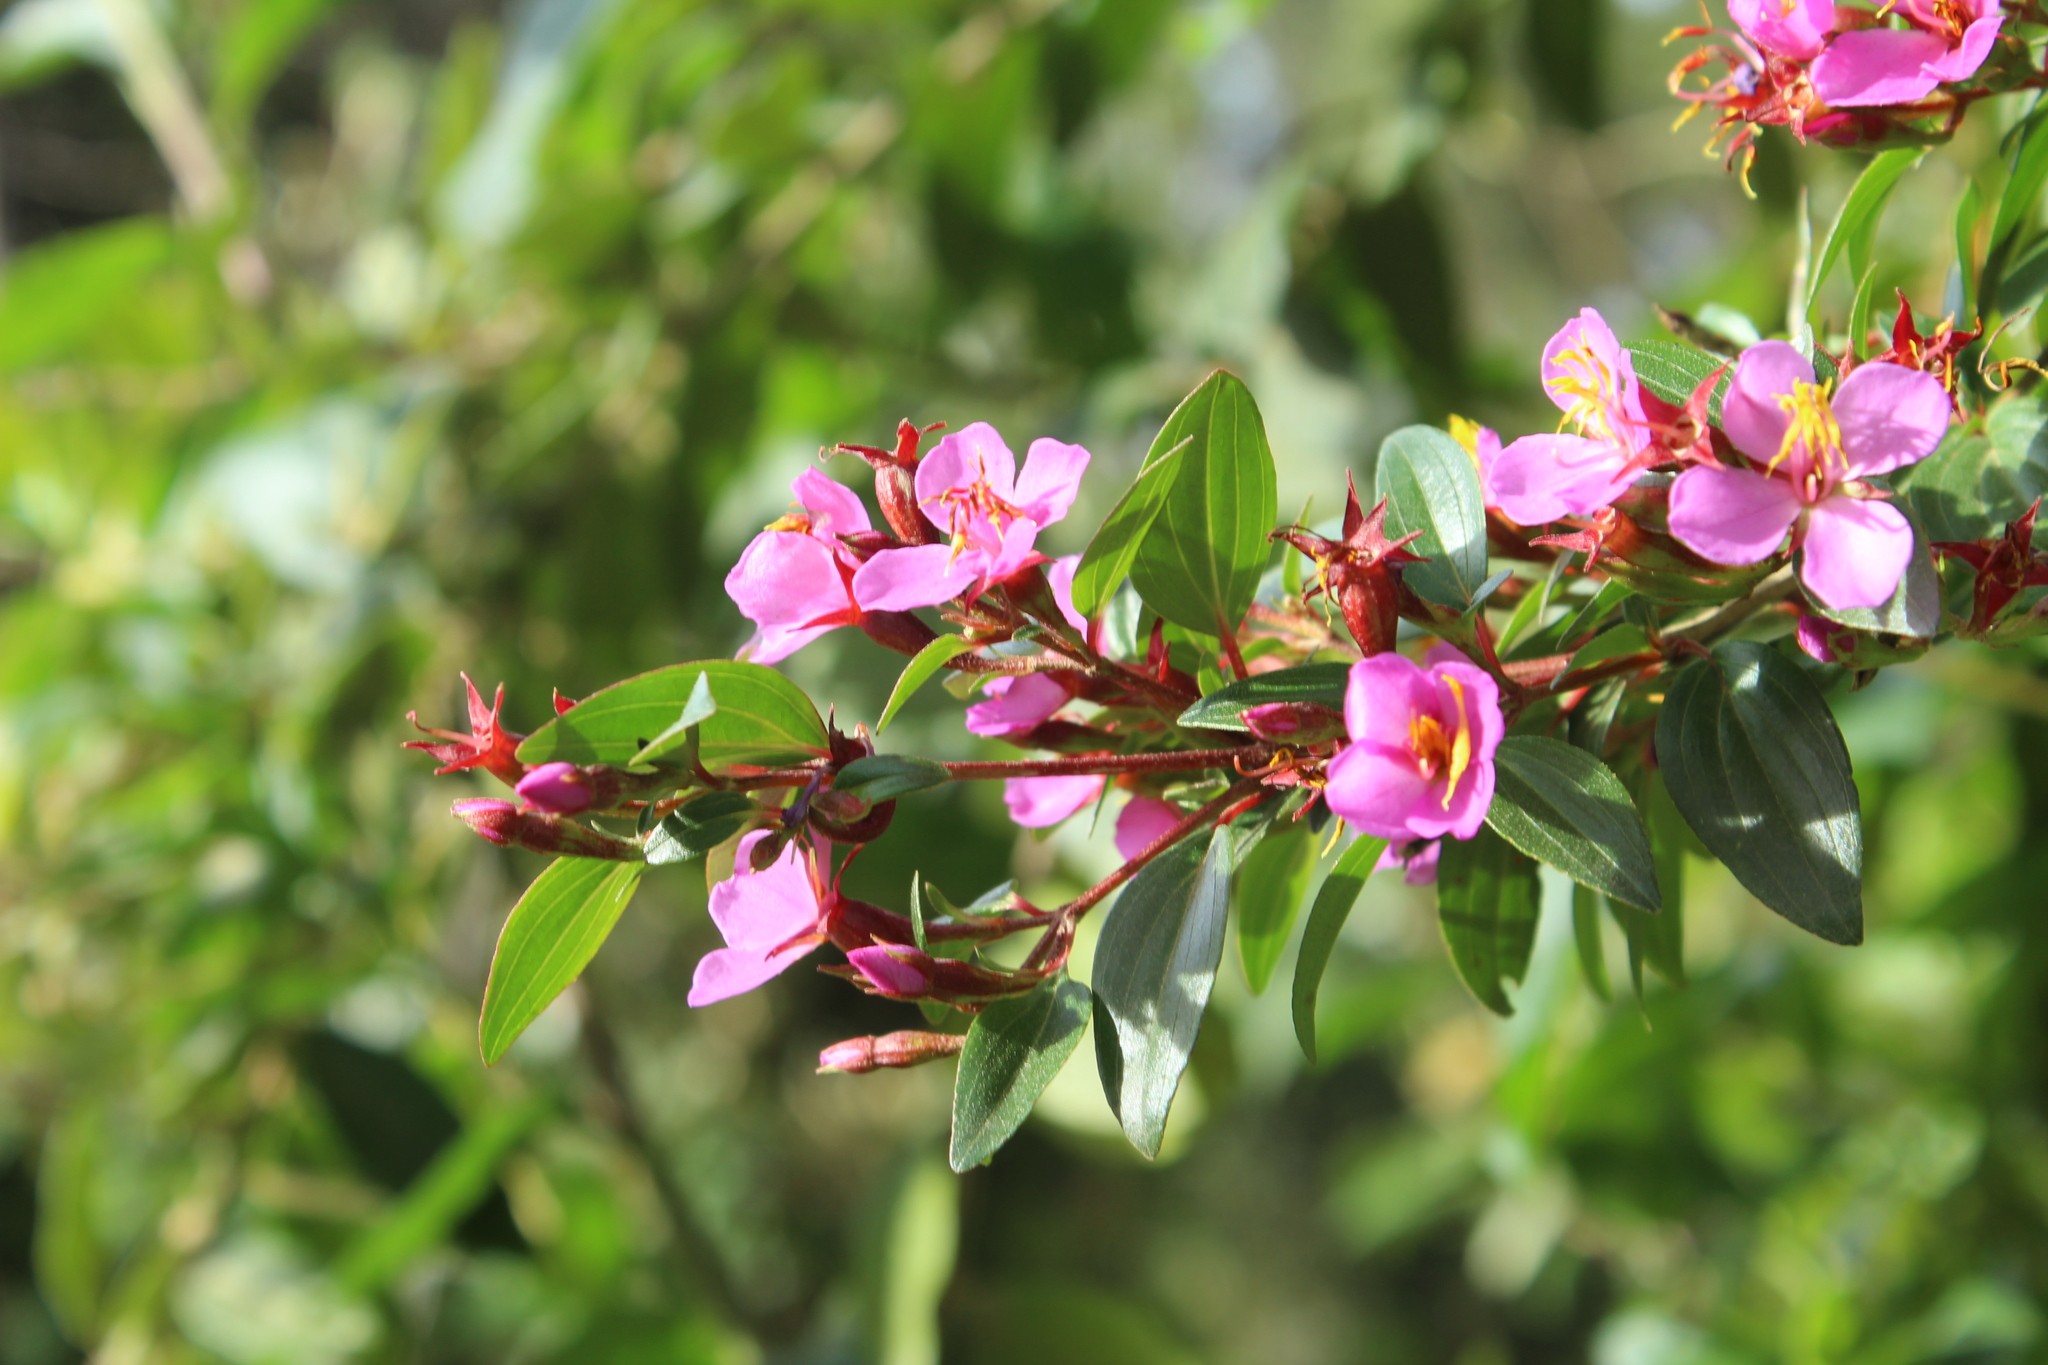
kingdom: Plantae
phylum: Tracheophyta
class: Magnoliopsida
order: Myrtales
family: Melastomataceae
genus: Monochaetum
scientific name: Monochaetum myrtoideum
